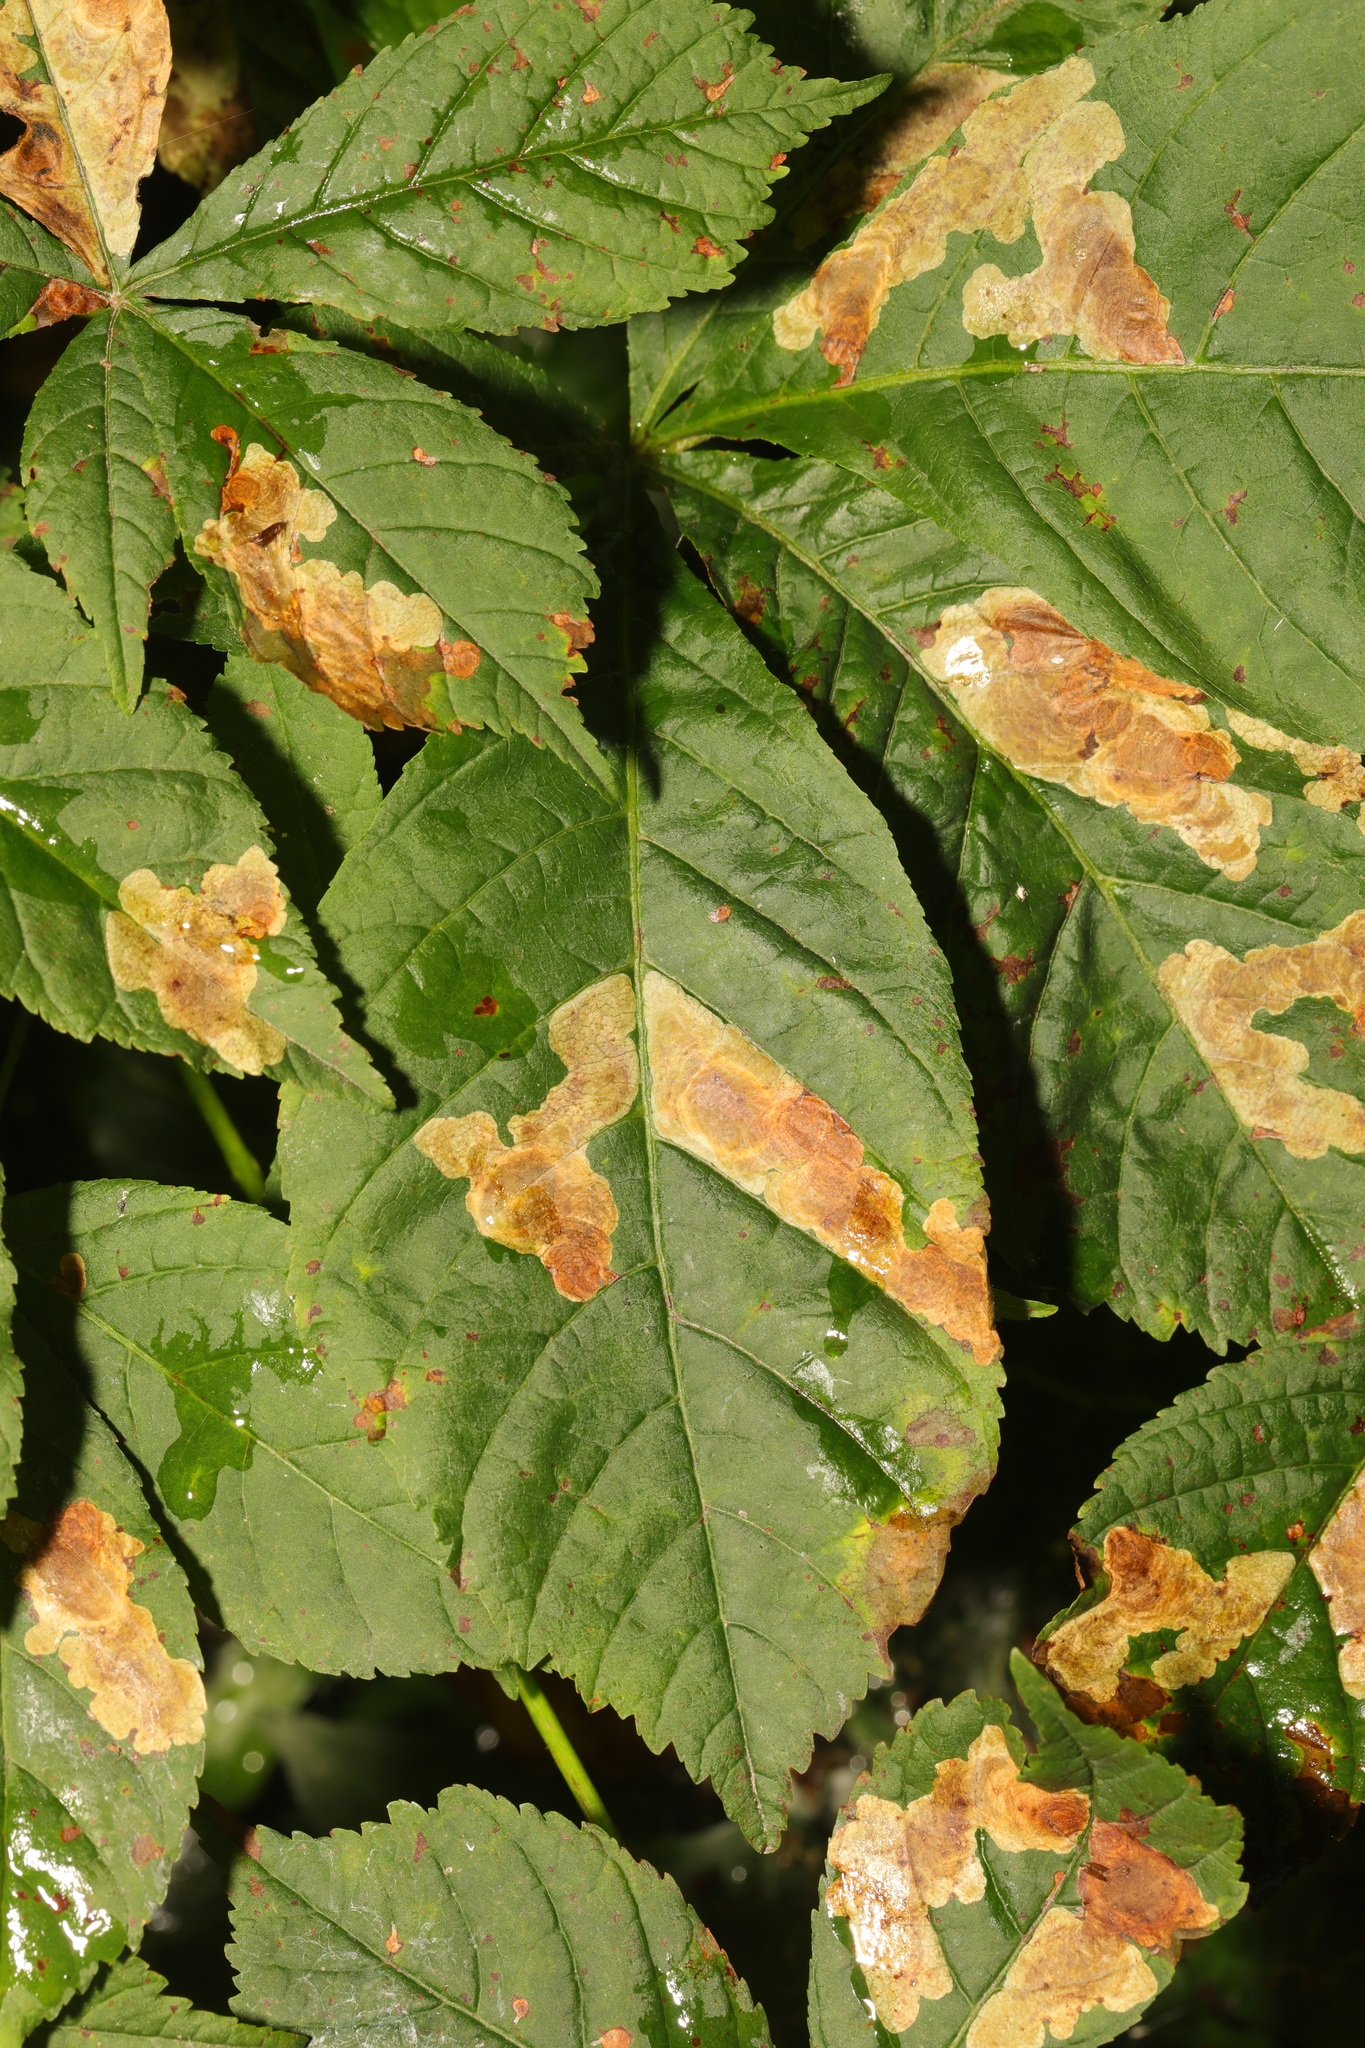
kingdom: Animalia
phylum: Arthropoda
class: Insecta
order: Lepidoptera
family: Gracillariidae
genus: Cameraria
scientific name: Cameraria ohridella
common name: Horse-chestnut leaf-miner
